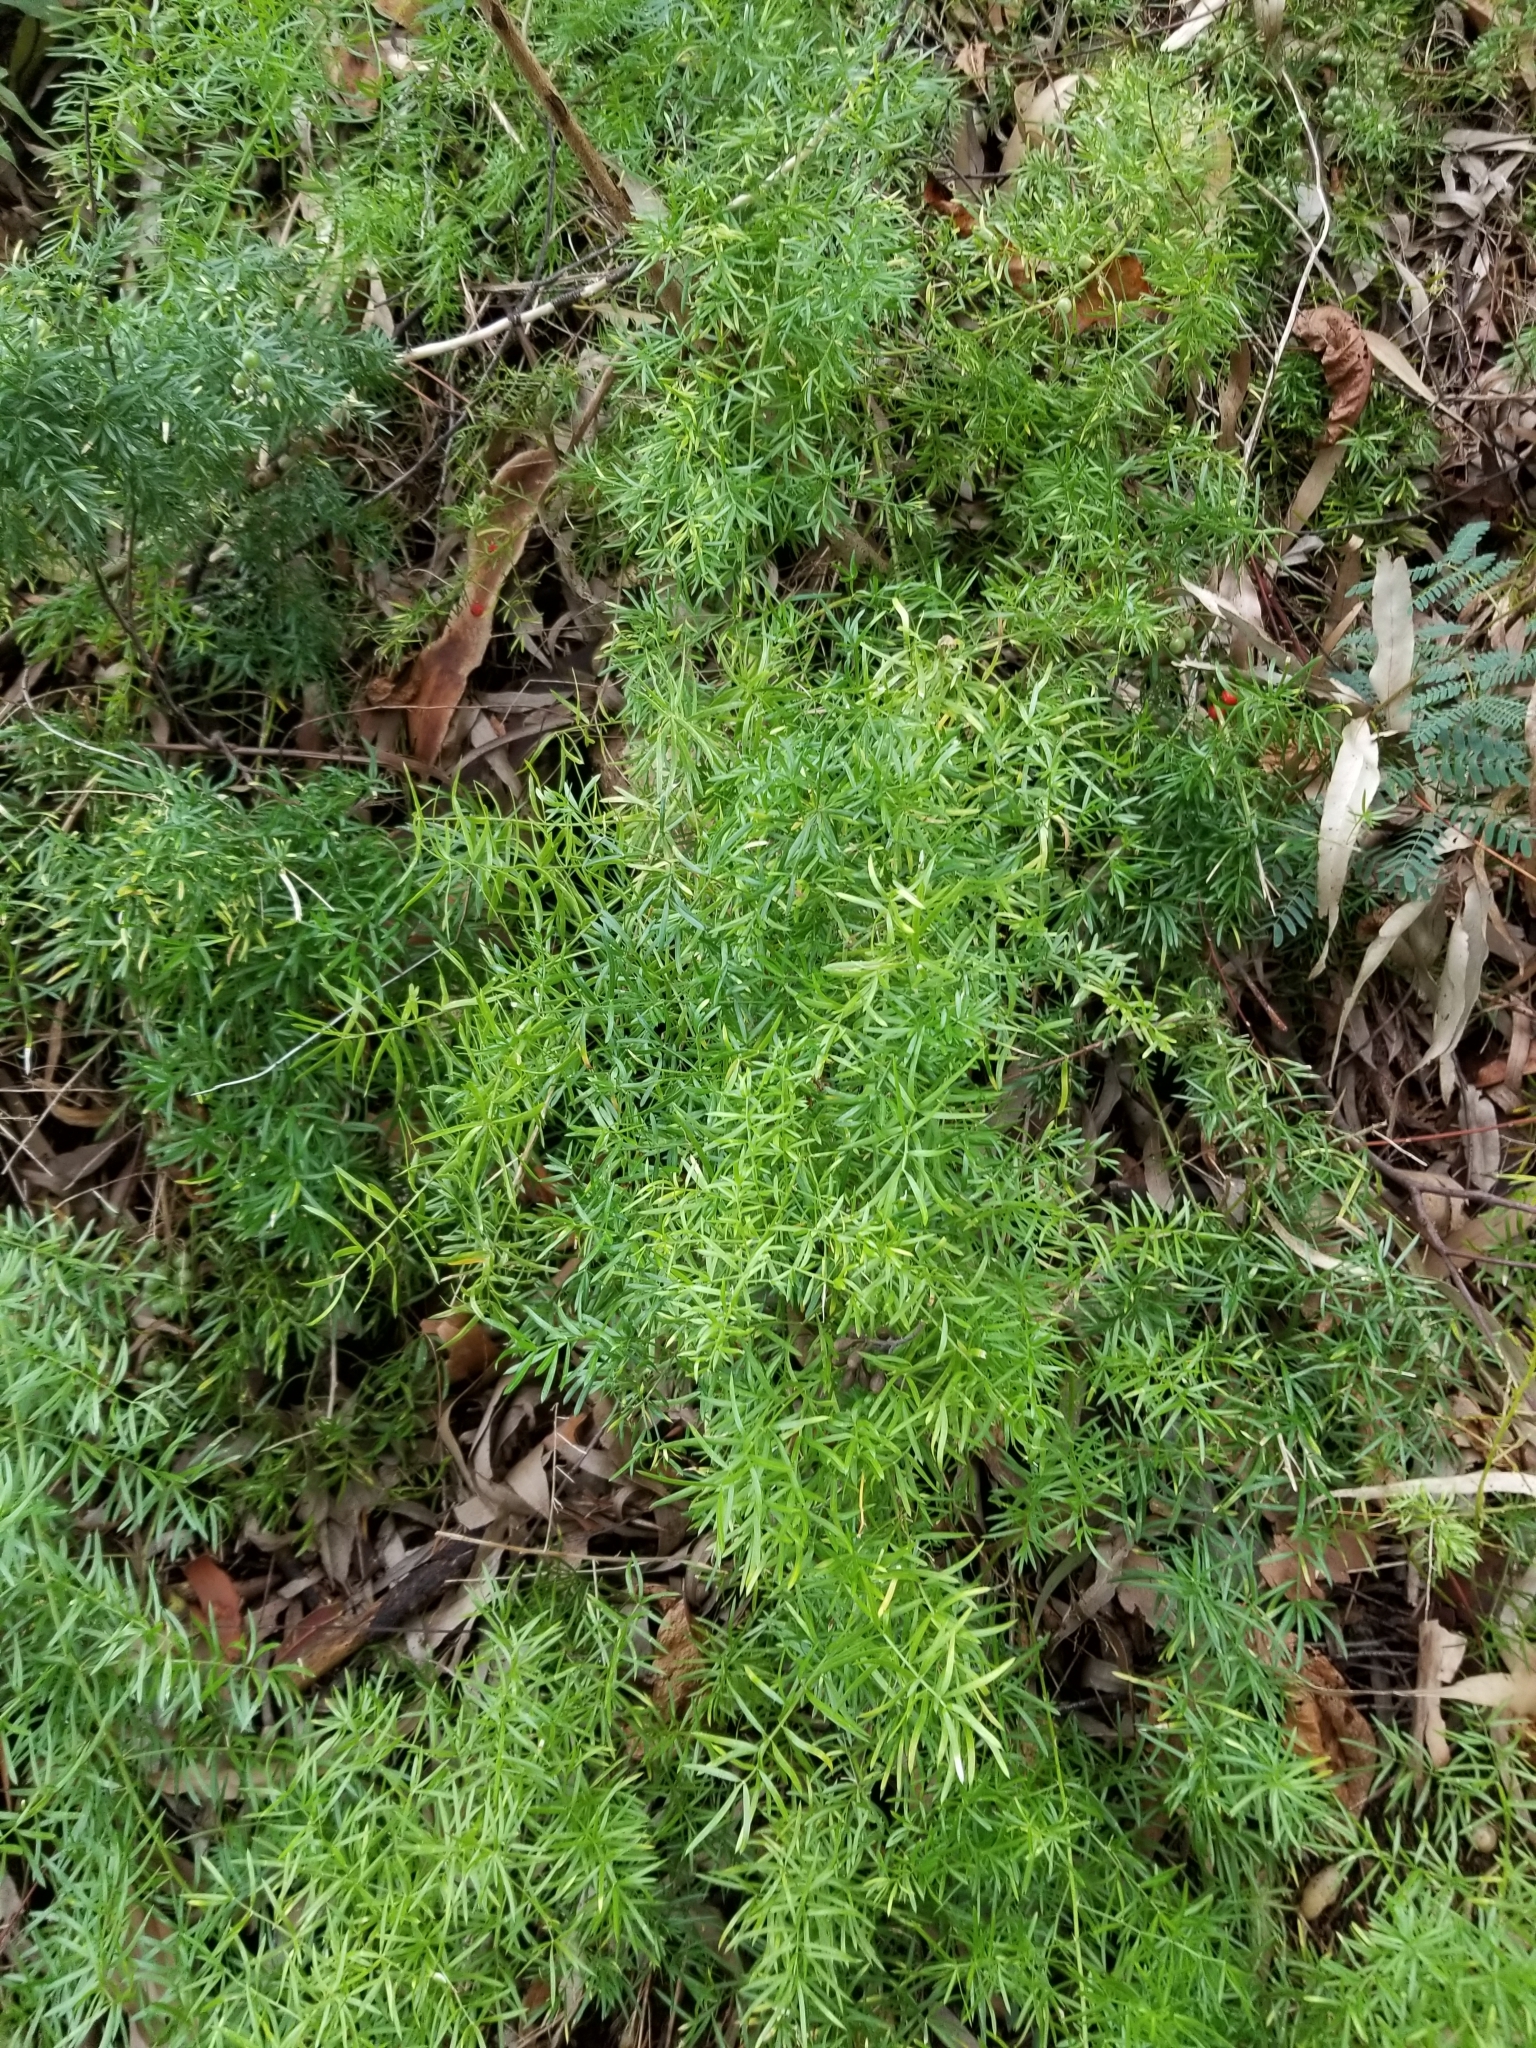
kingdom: Plantae
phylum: Tracheophyta
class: Liliopsida
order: Asparagales
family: Asparagaceae
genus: Asparagus
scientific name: Asparagus aethiopicus
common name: Sprenger's asparagus fern
